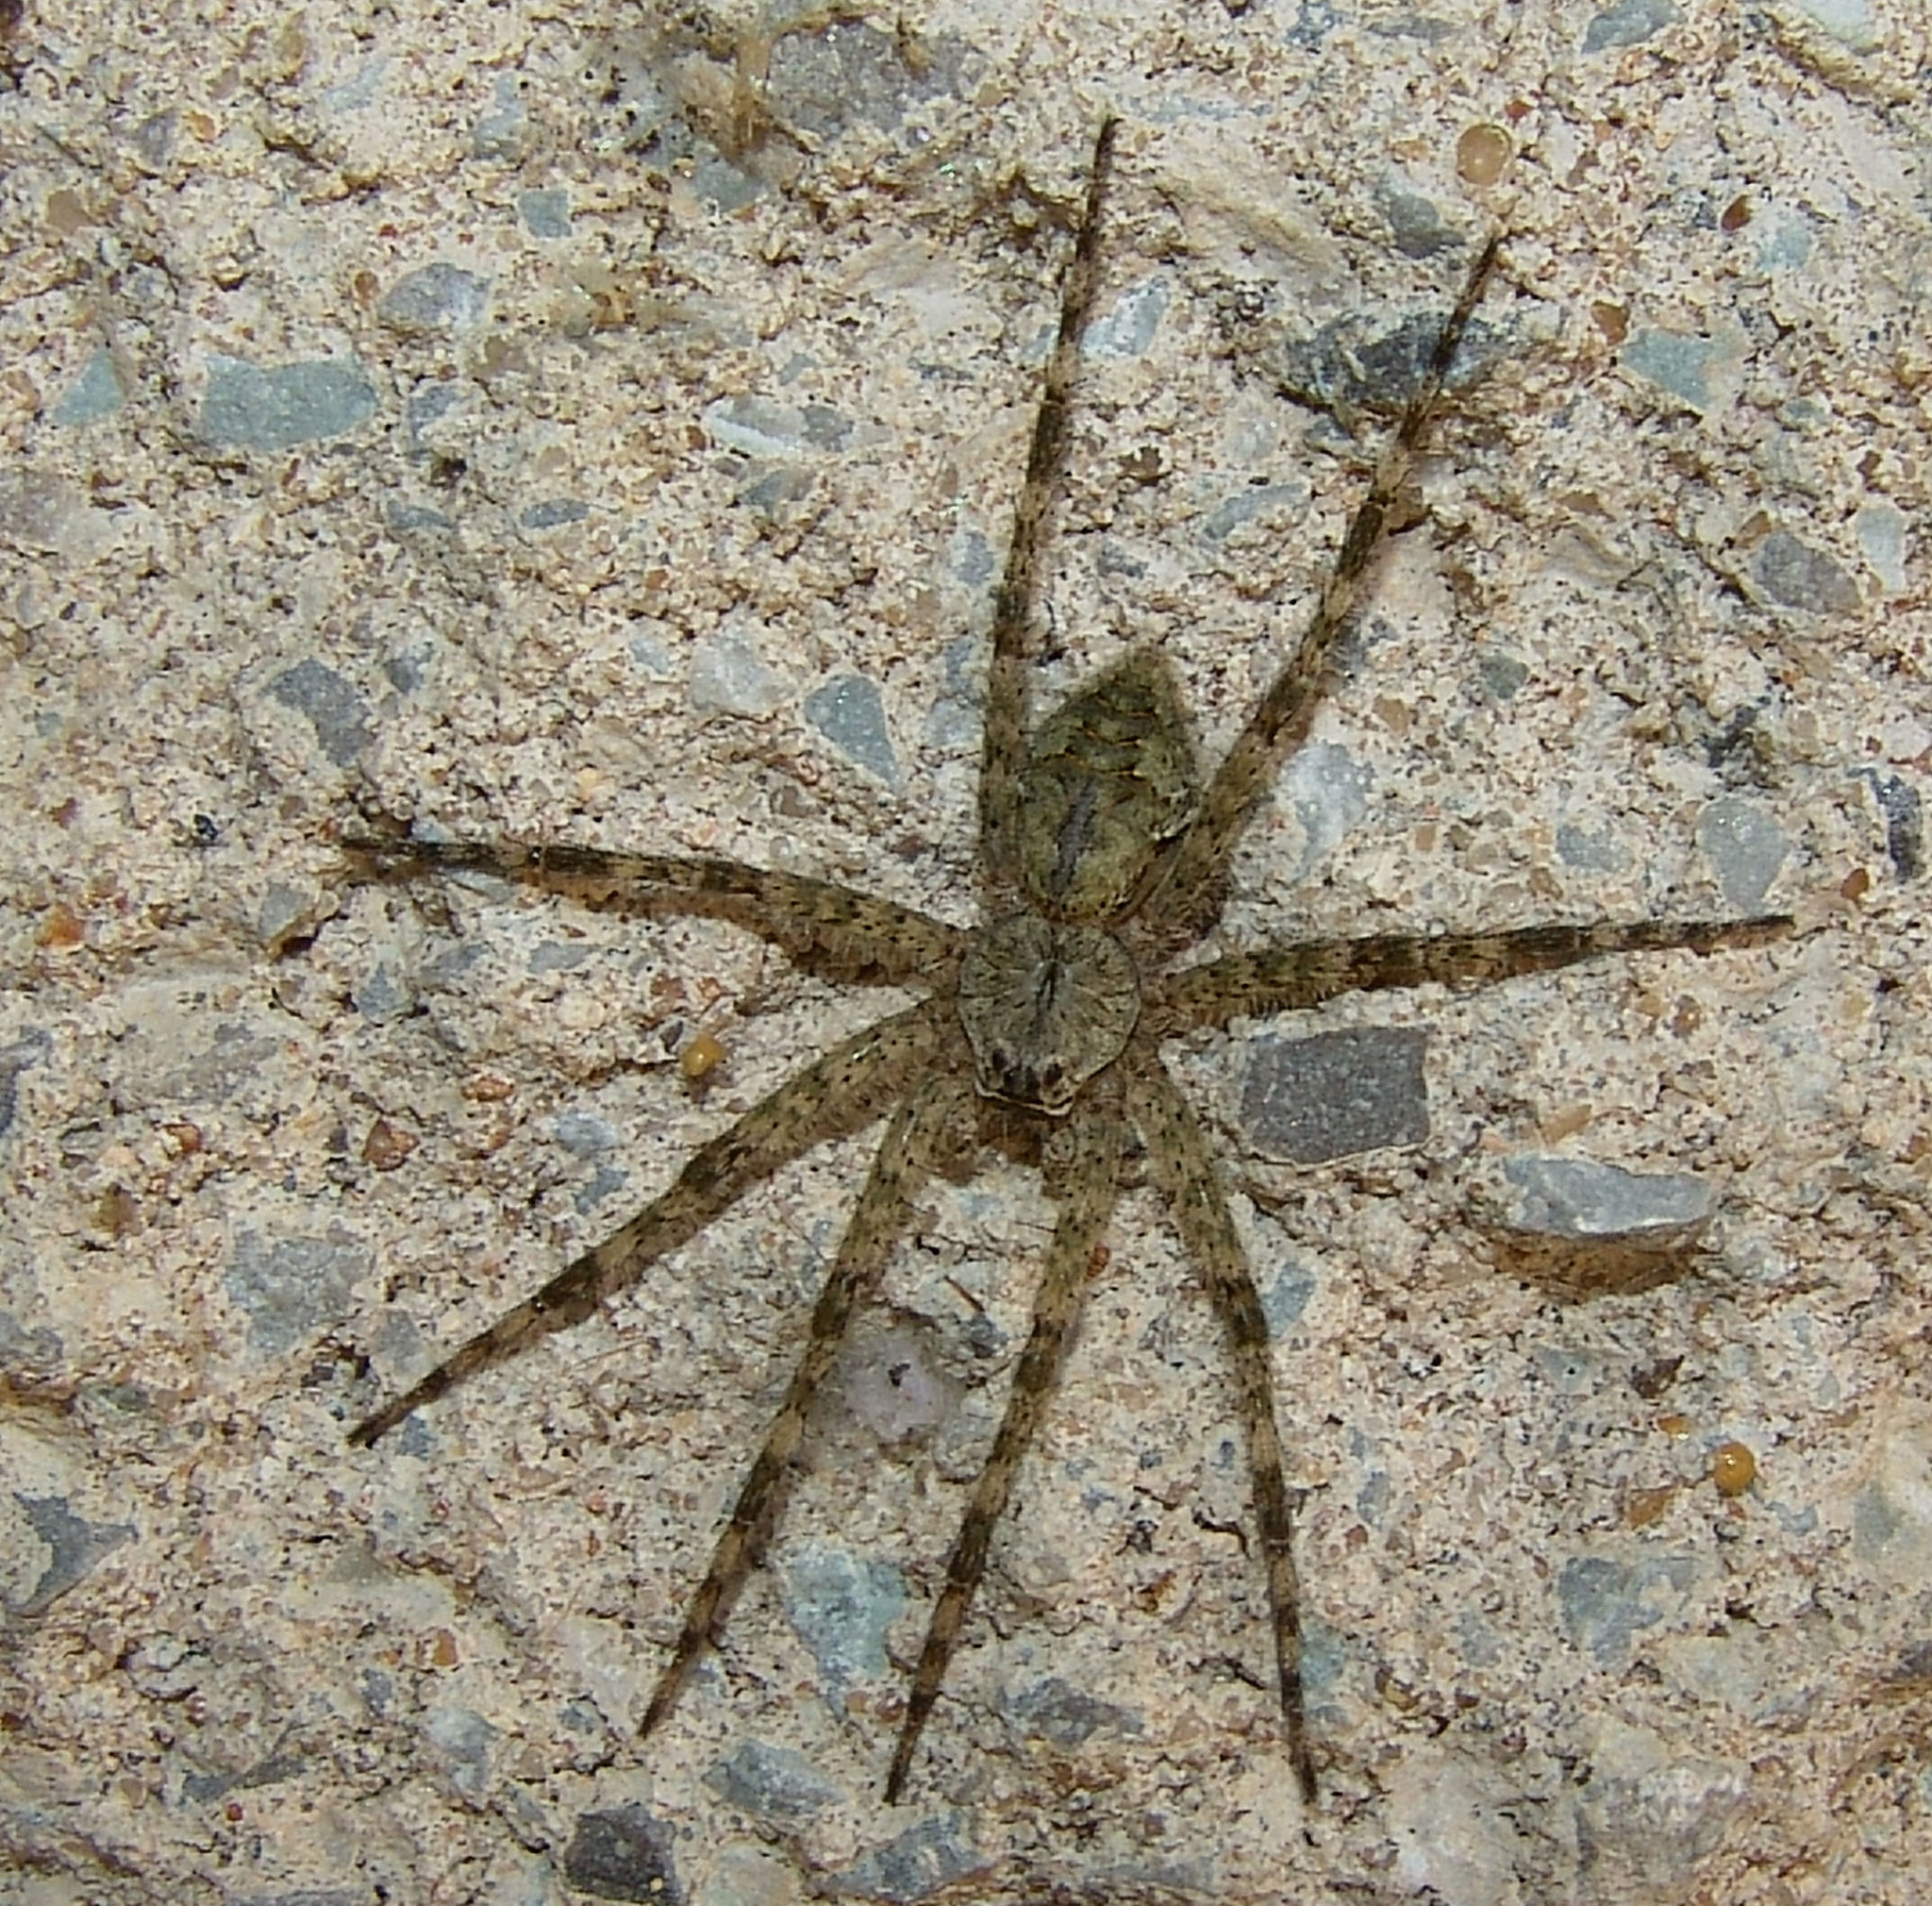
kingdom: Animalia
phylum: Arthropoda
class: Arachnida
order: Araneae
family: Pisauridae
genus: Dolomedes
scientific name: Dolomedes albineus
